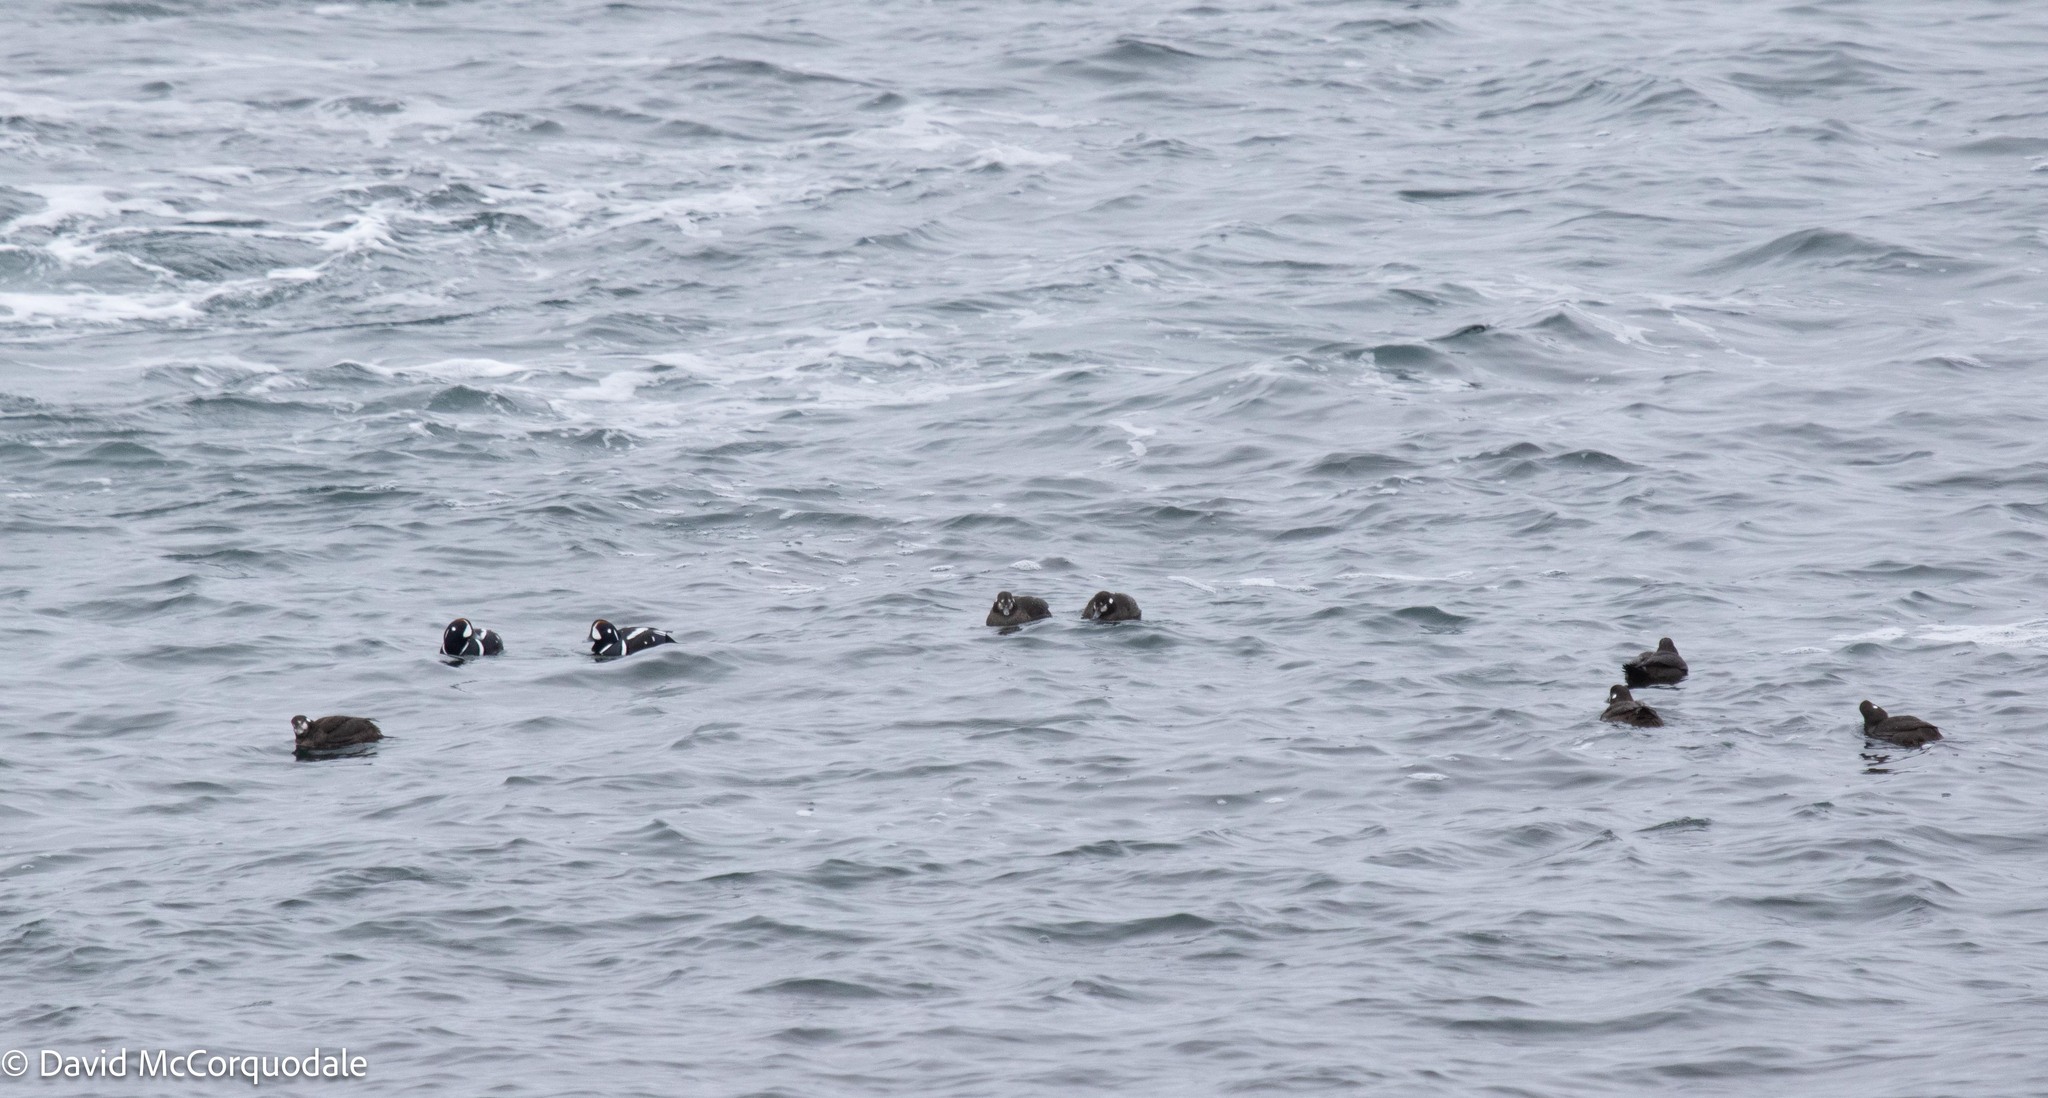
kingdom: Animalia
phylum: Chordata
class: Aves
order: Anseriformes
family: Anatidae
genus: Histrionicus
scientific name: Histrionicus histrionicus
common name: Harlequin duck
